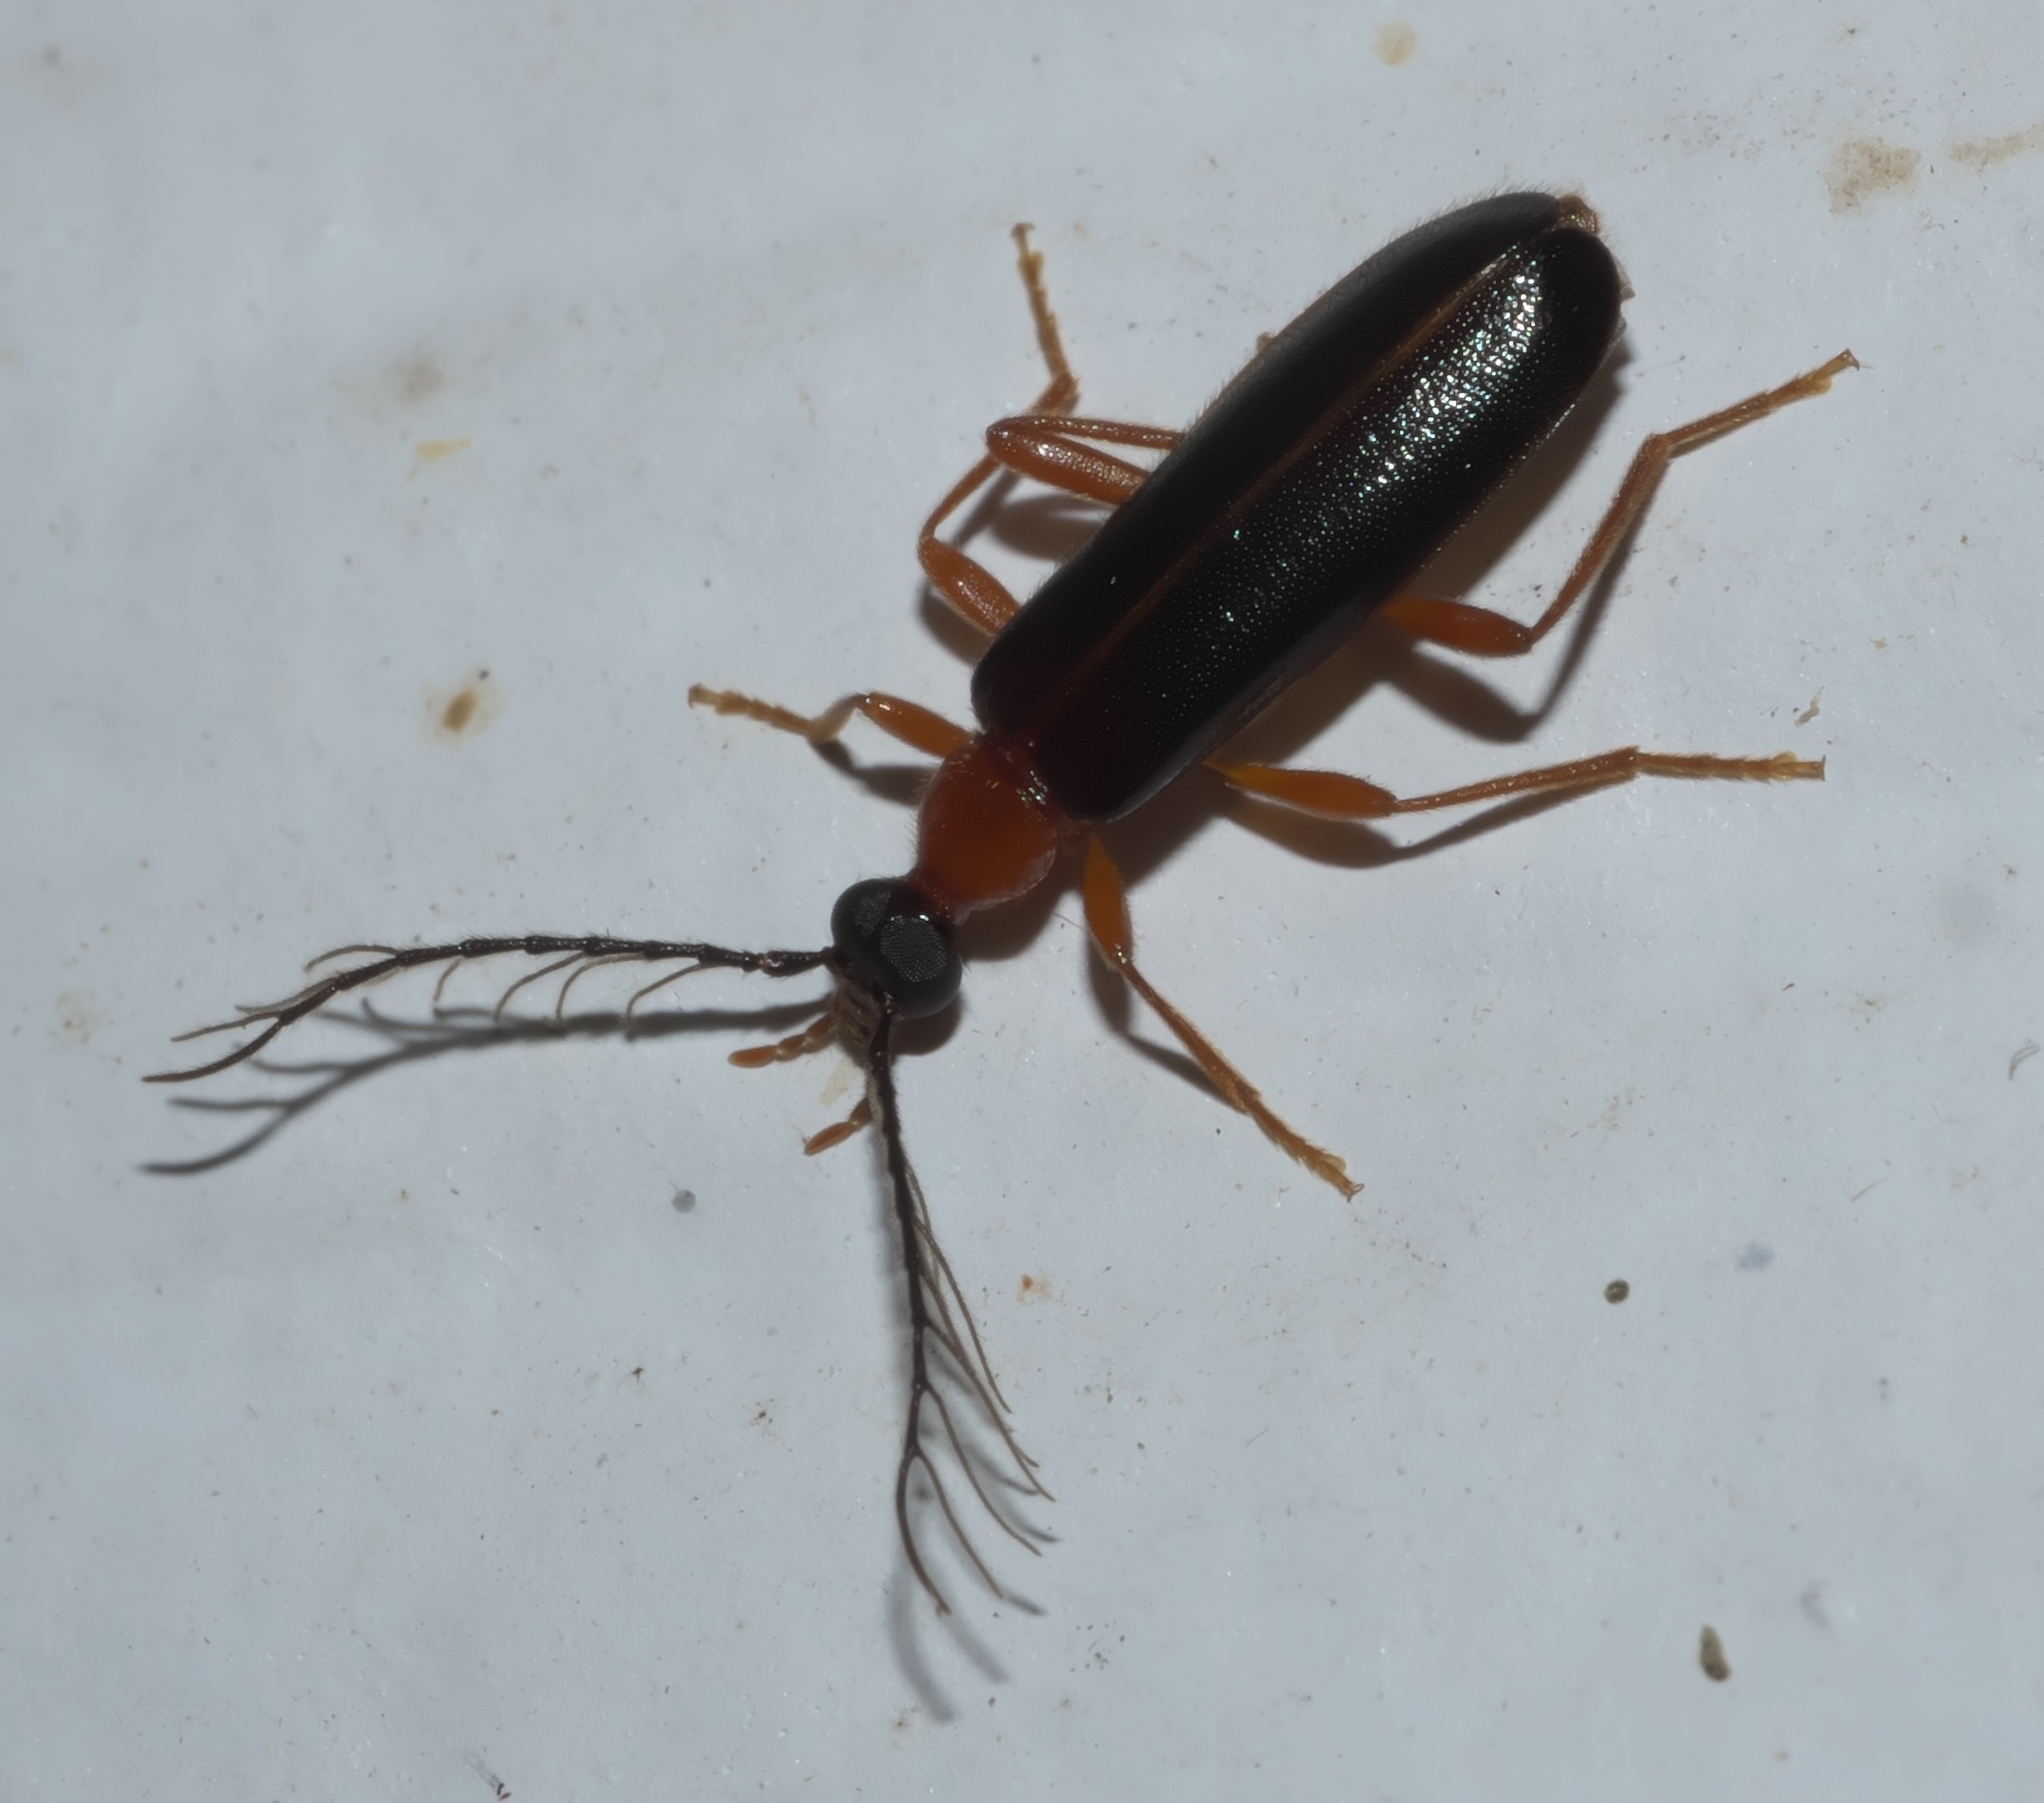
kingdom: Animalia
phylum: Arthropoda
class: Insecta
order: Coleoptera
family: Pyrochroidae
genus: Dendroides
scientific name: Dendroides canadensis
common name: Canada fire-colored beetle
